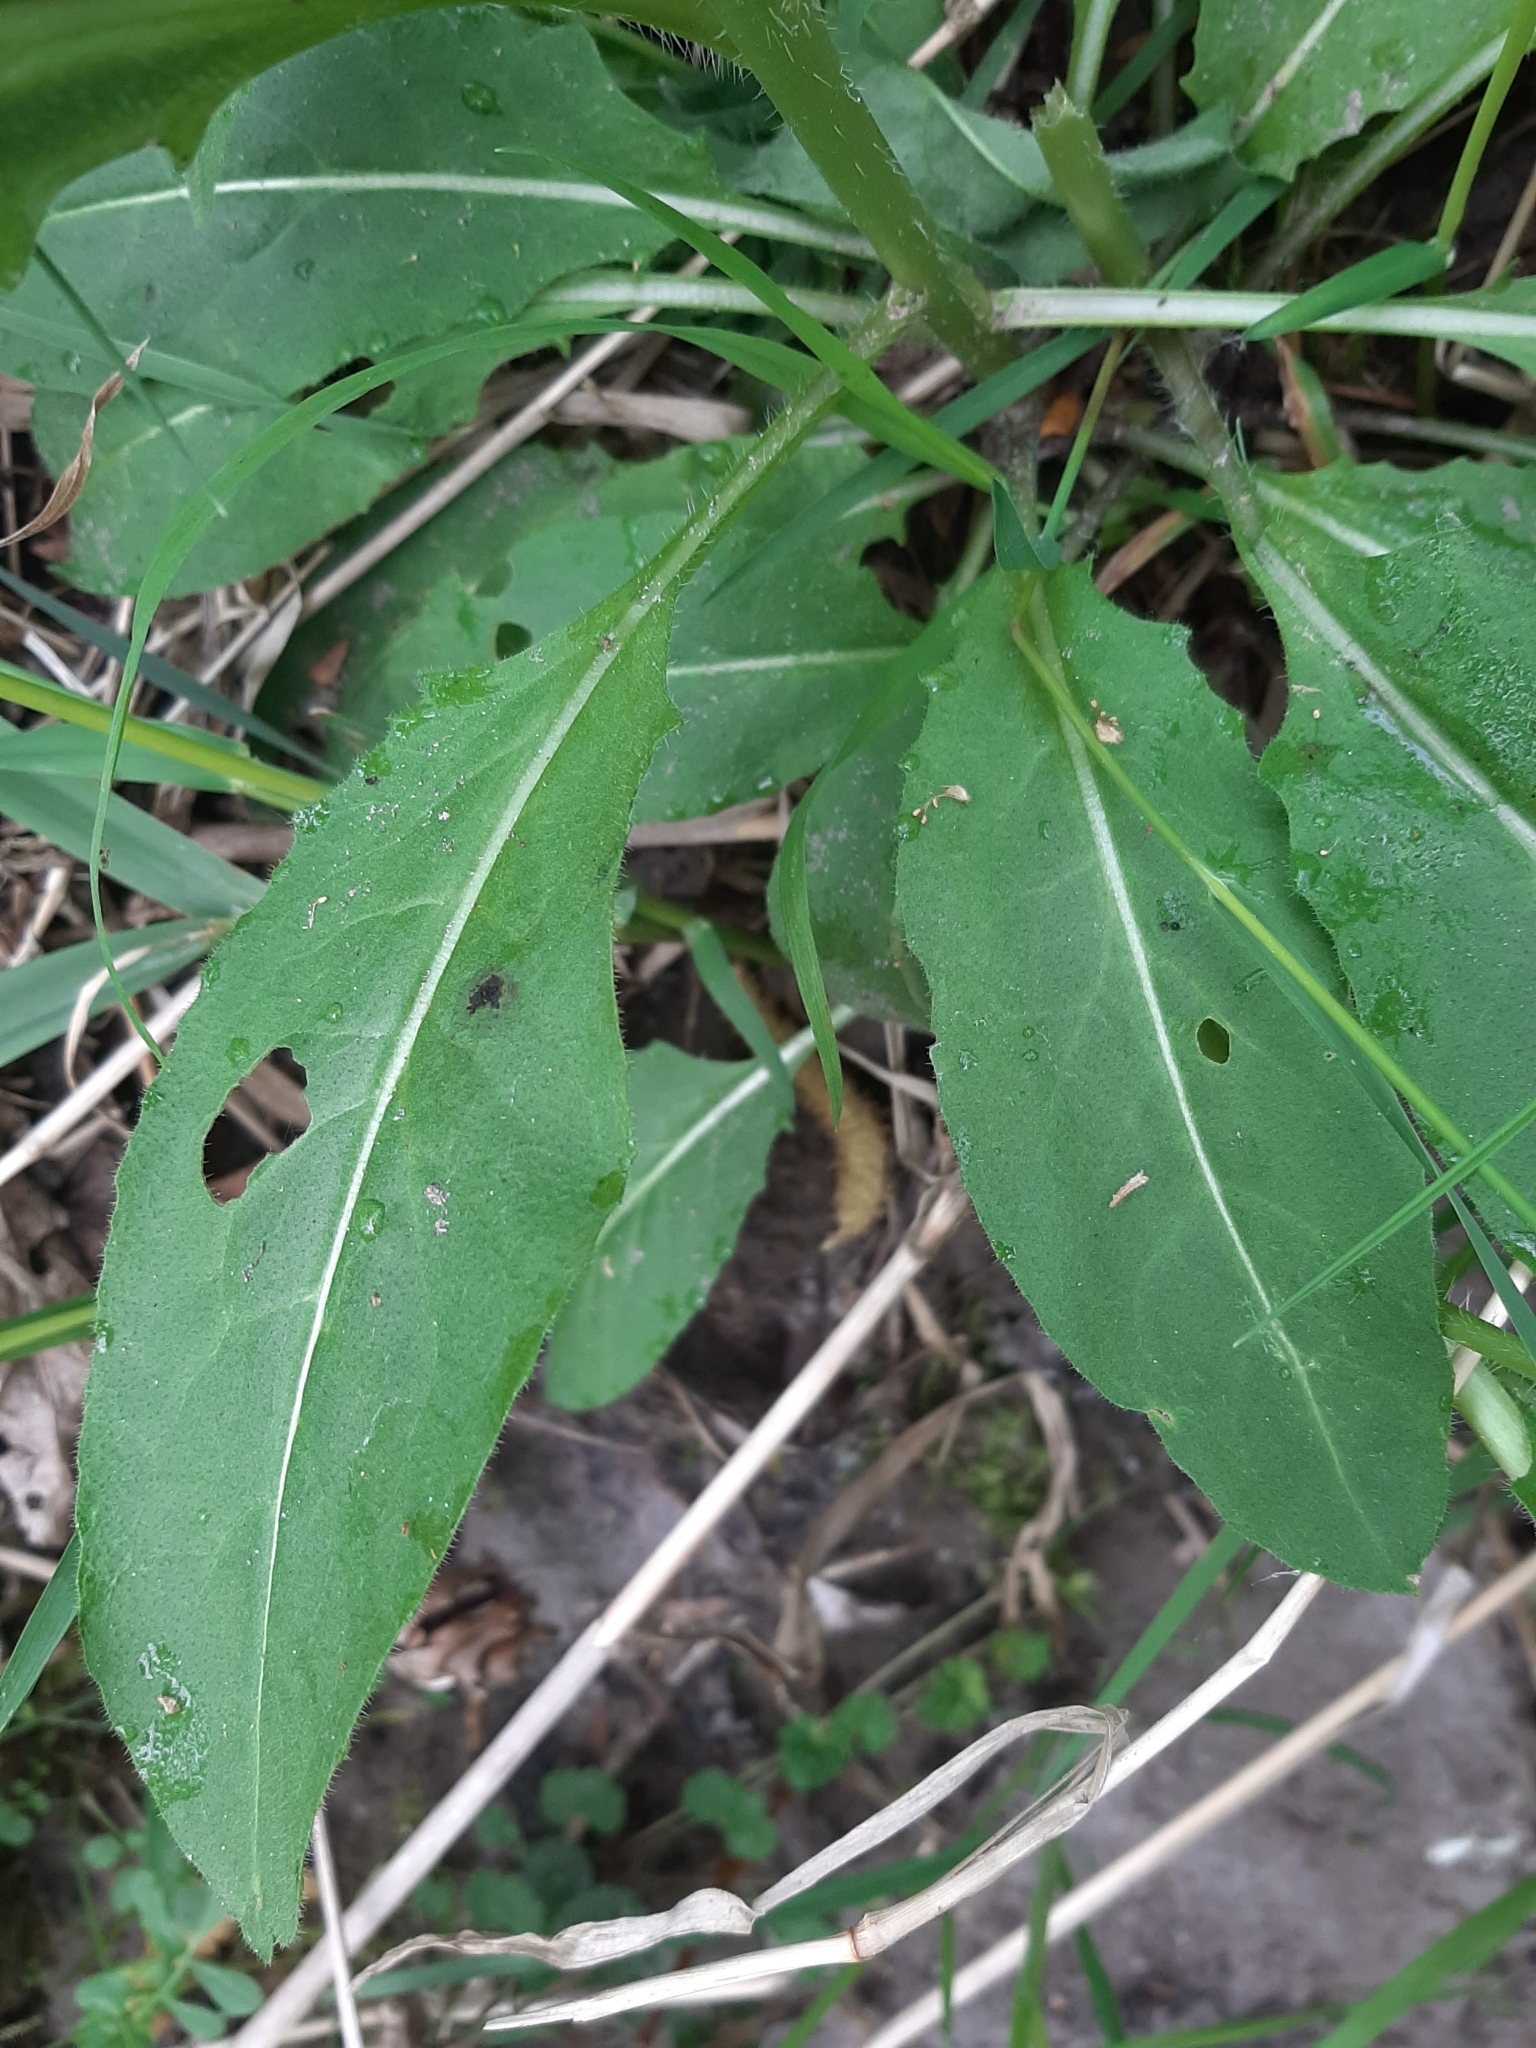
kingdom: Plantae
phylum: Tracheophyta
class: Magnoliopsida
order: Brassicales
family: Brassicaceae
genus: Hesperis
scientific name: Hesperis matronalis
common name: Dame's-violet
